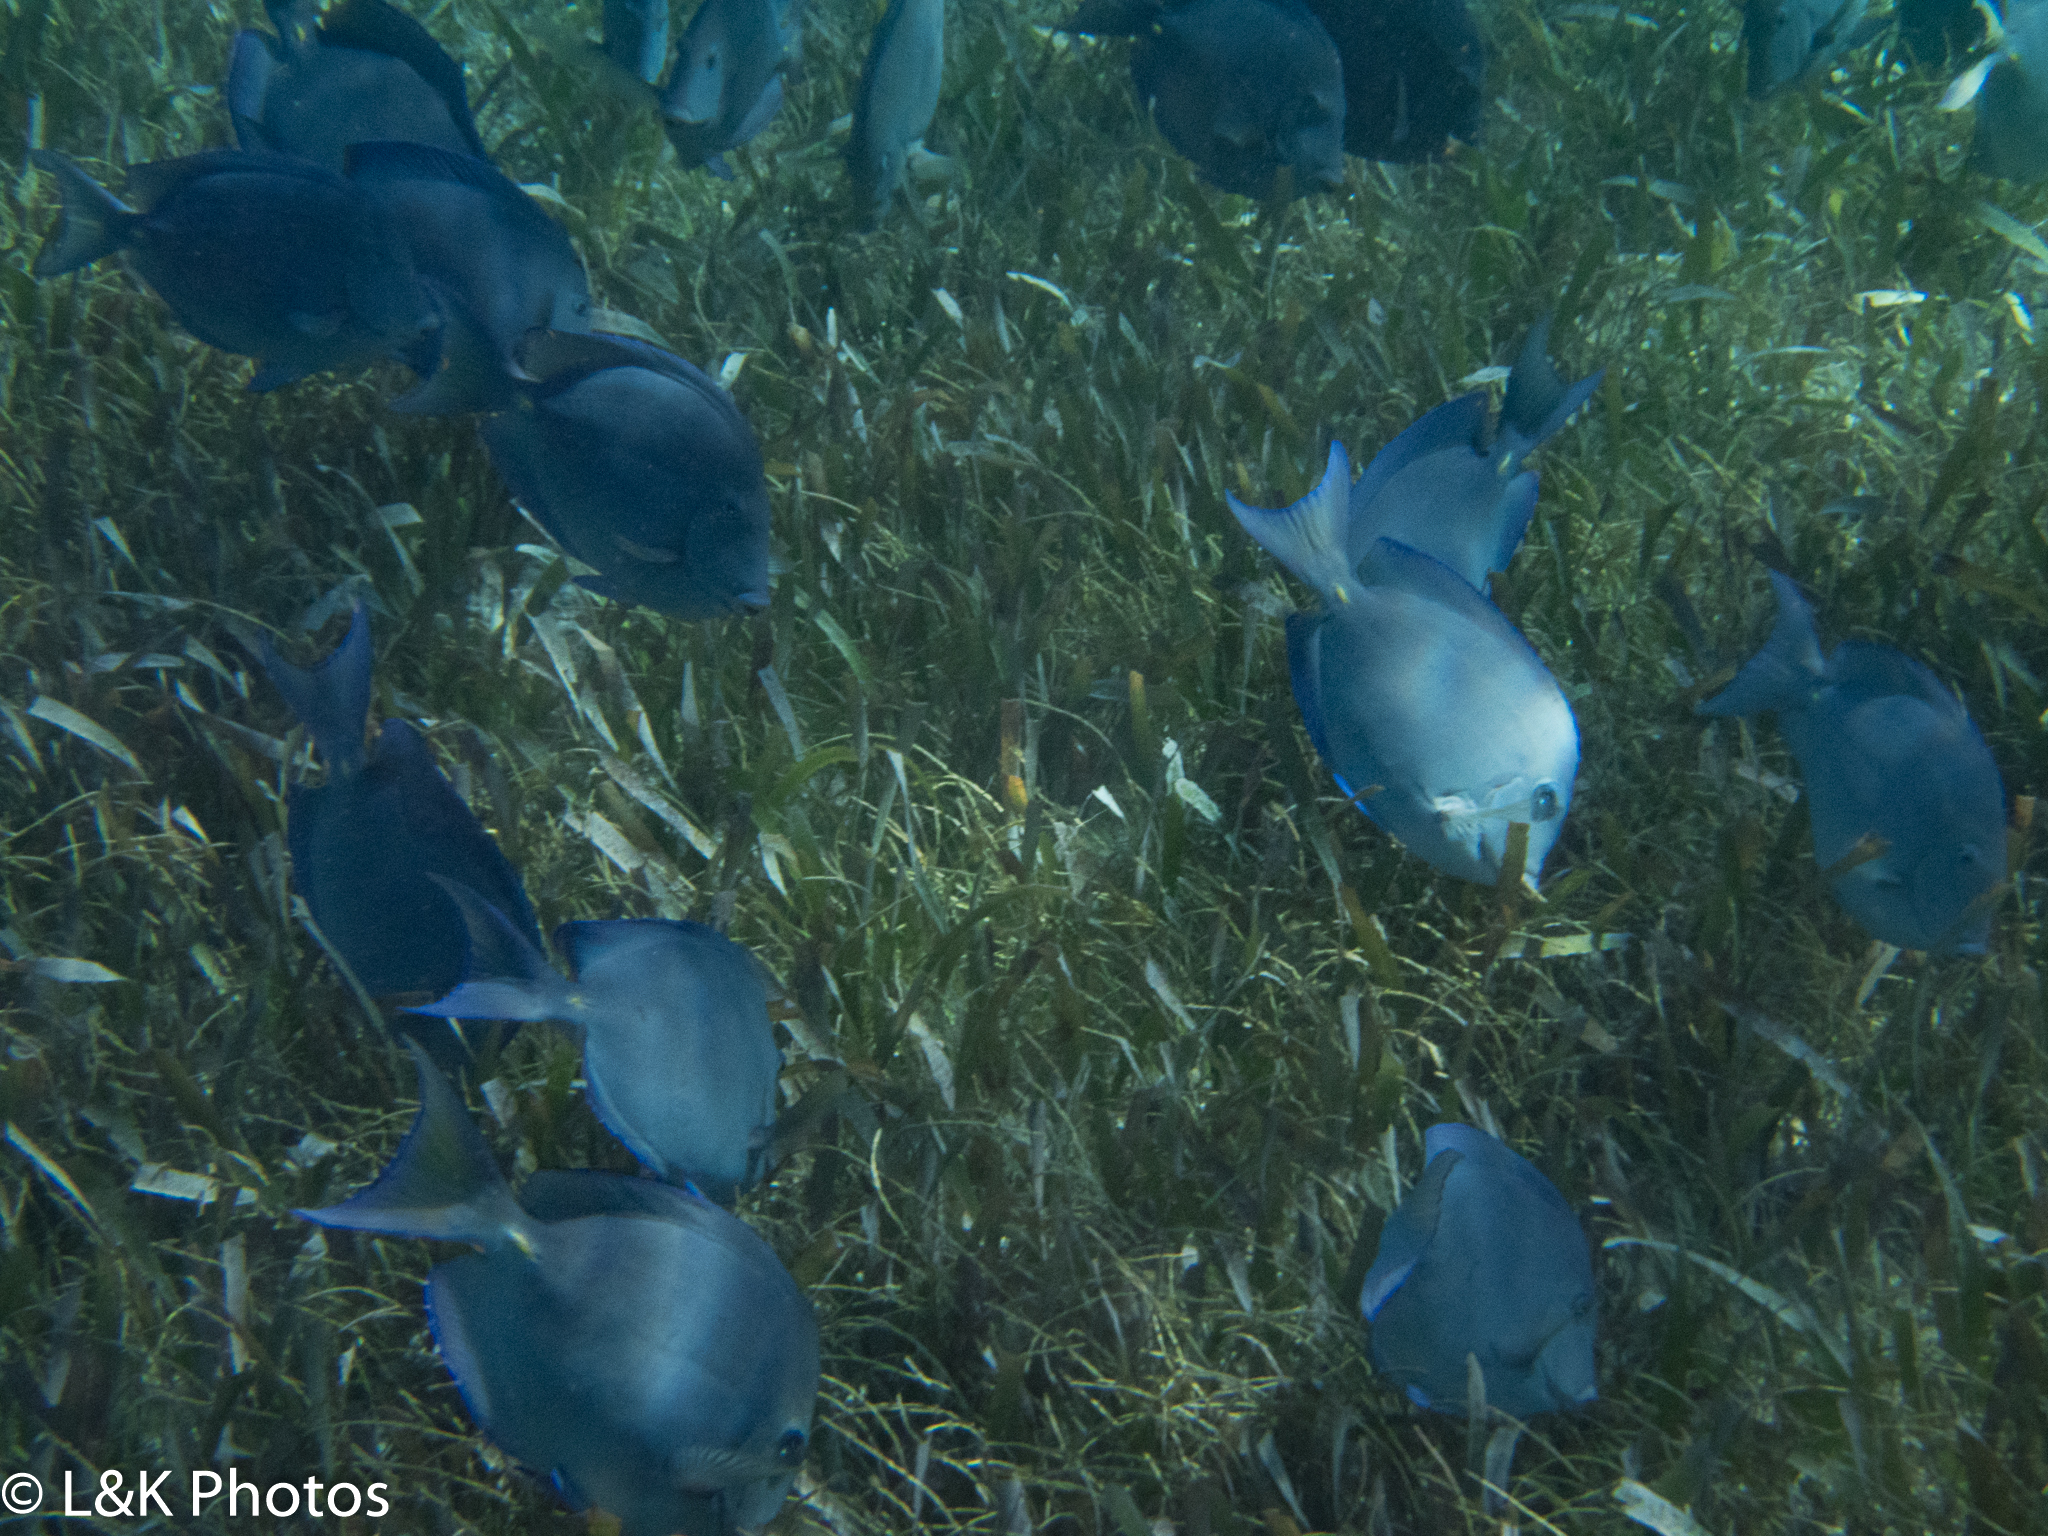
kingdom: Animalia
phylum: Chordata
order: Perciformes
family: Acanthuridae
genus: Acanthurus
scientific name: Acanthurus coeruleus
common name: Blue tang
